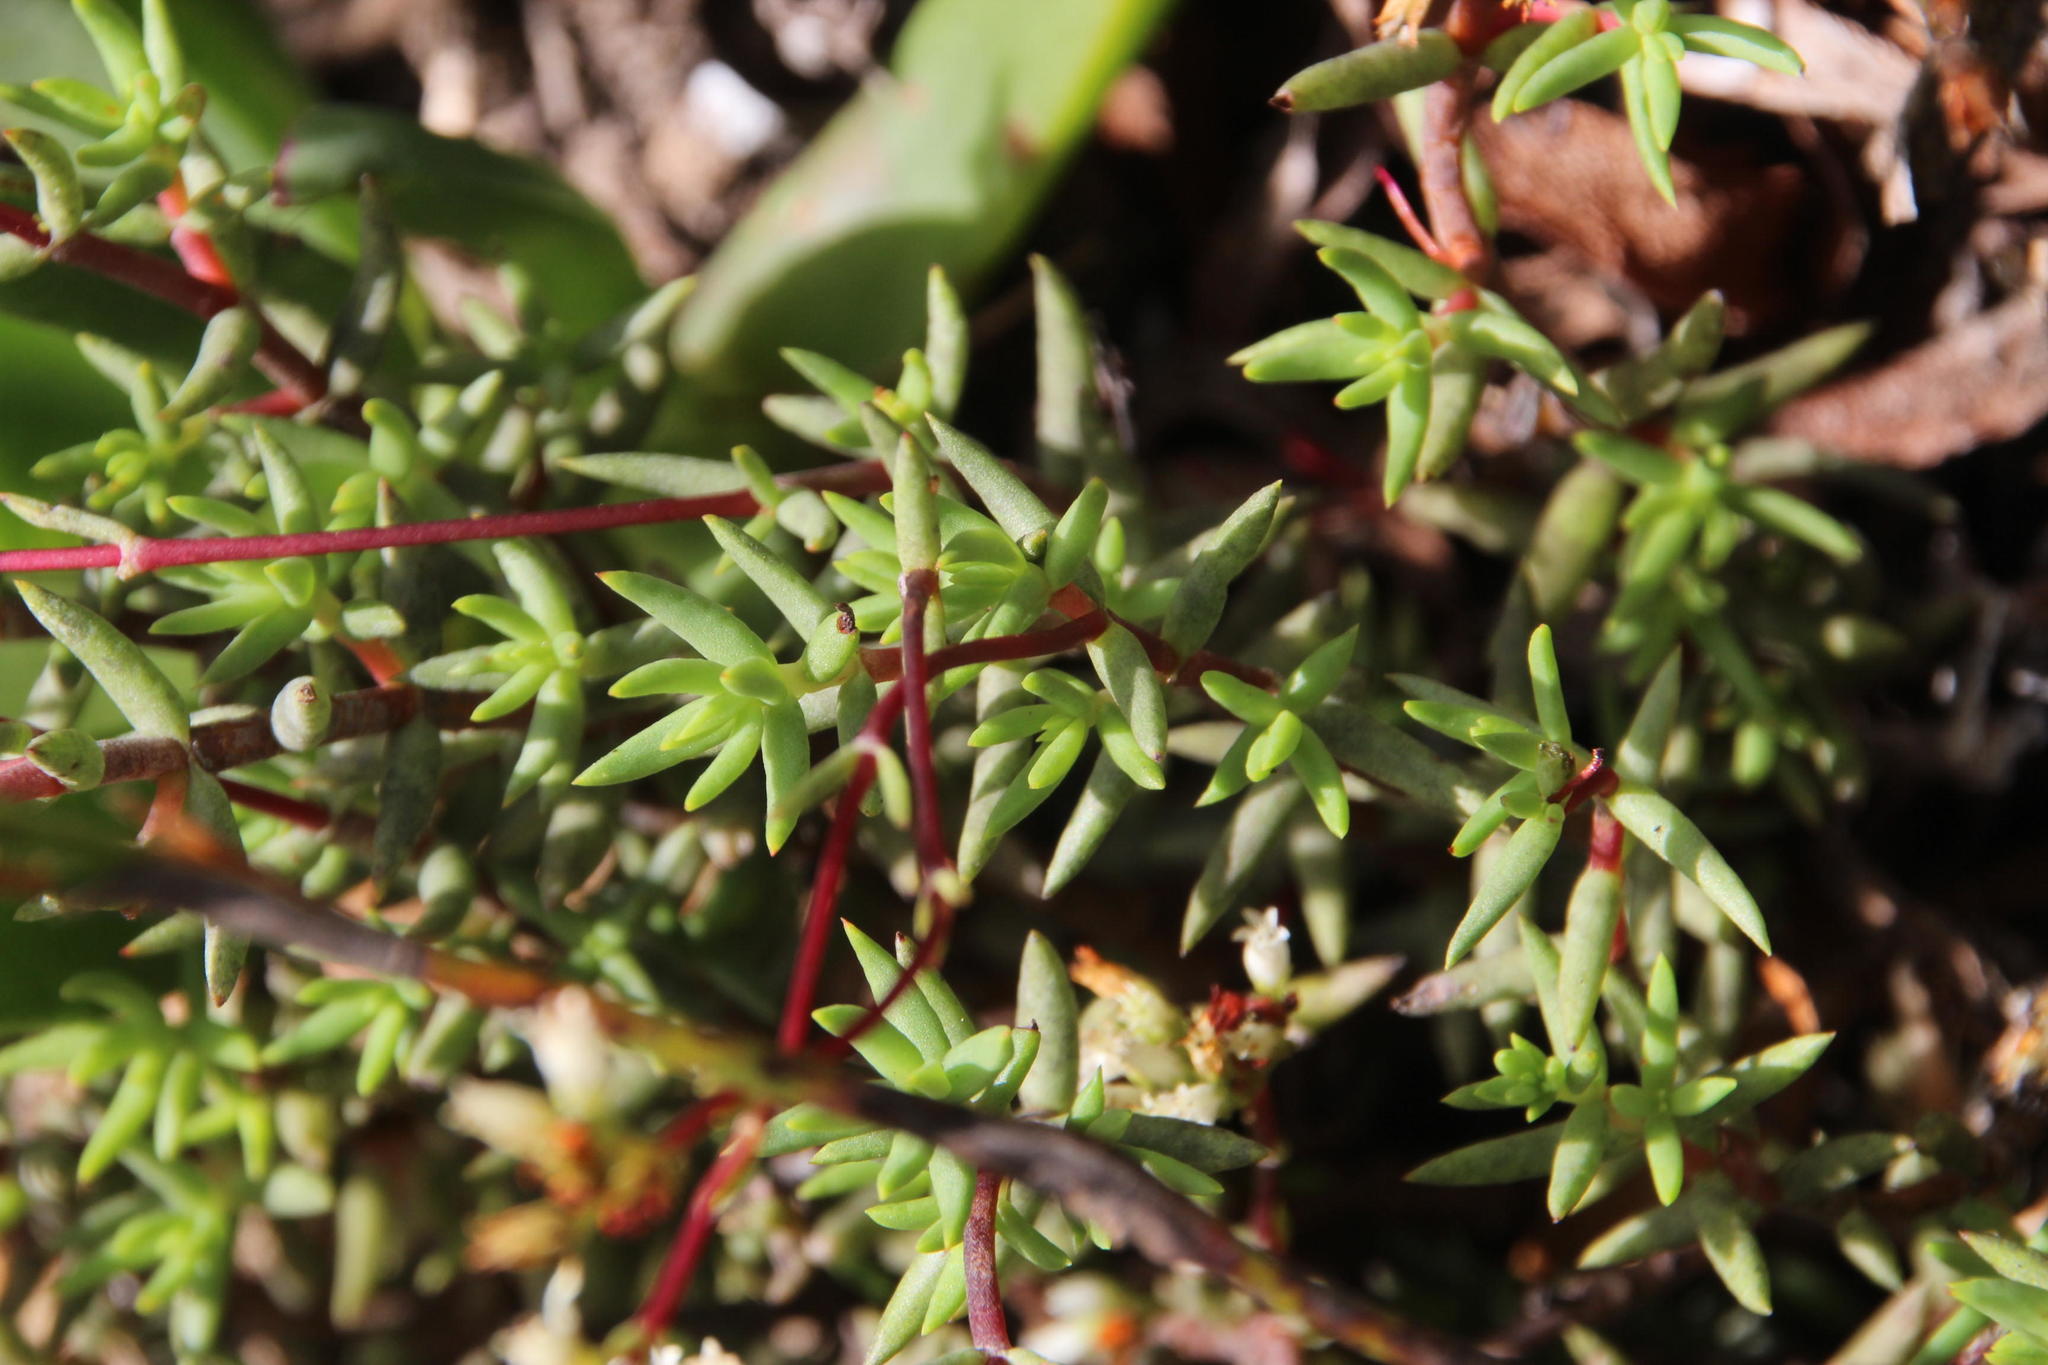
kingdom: Plantae
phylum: Tracheophyta
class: Magnoliopsida
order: Saxifragales
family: Crassulaceae
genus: Crassula
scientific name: Crassula biplanata
